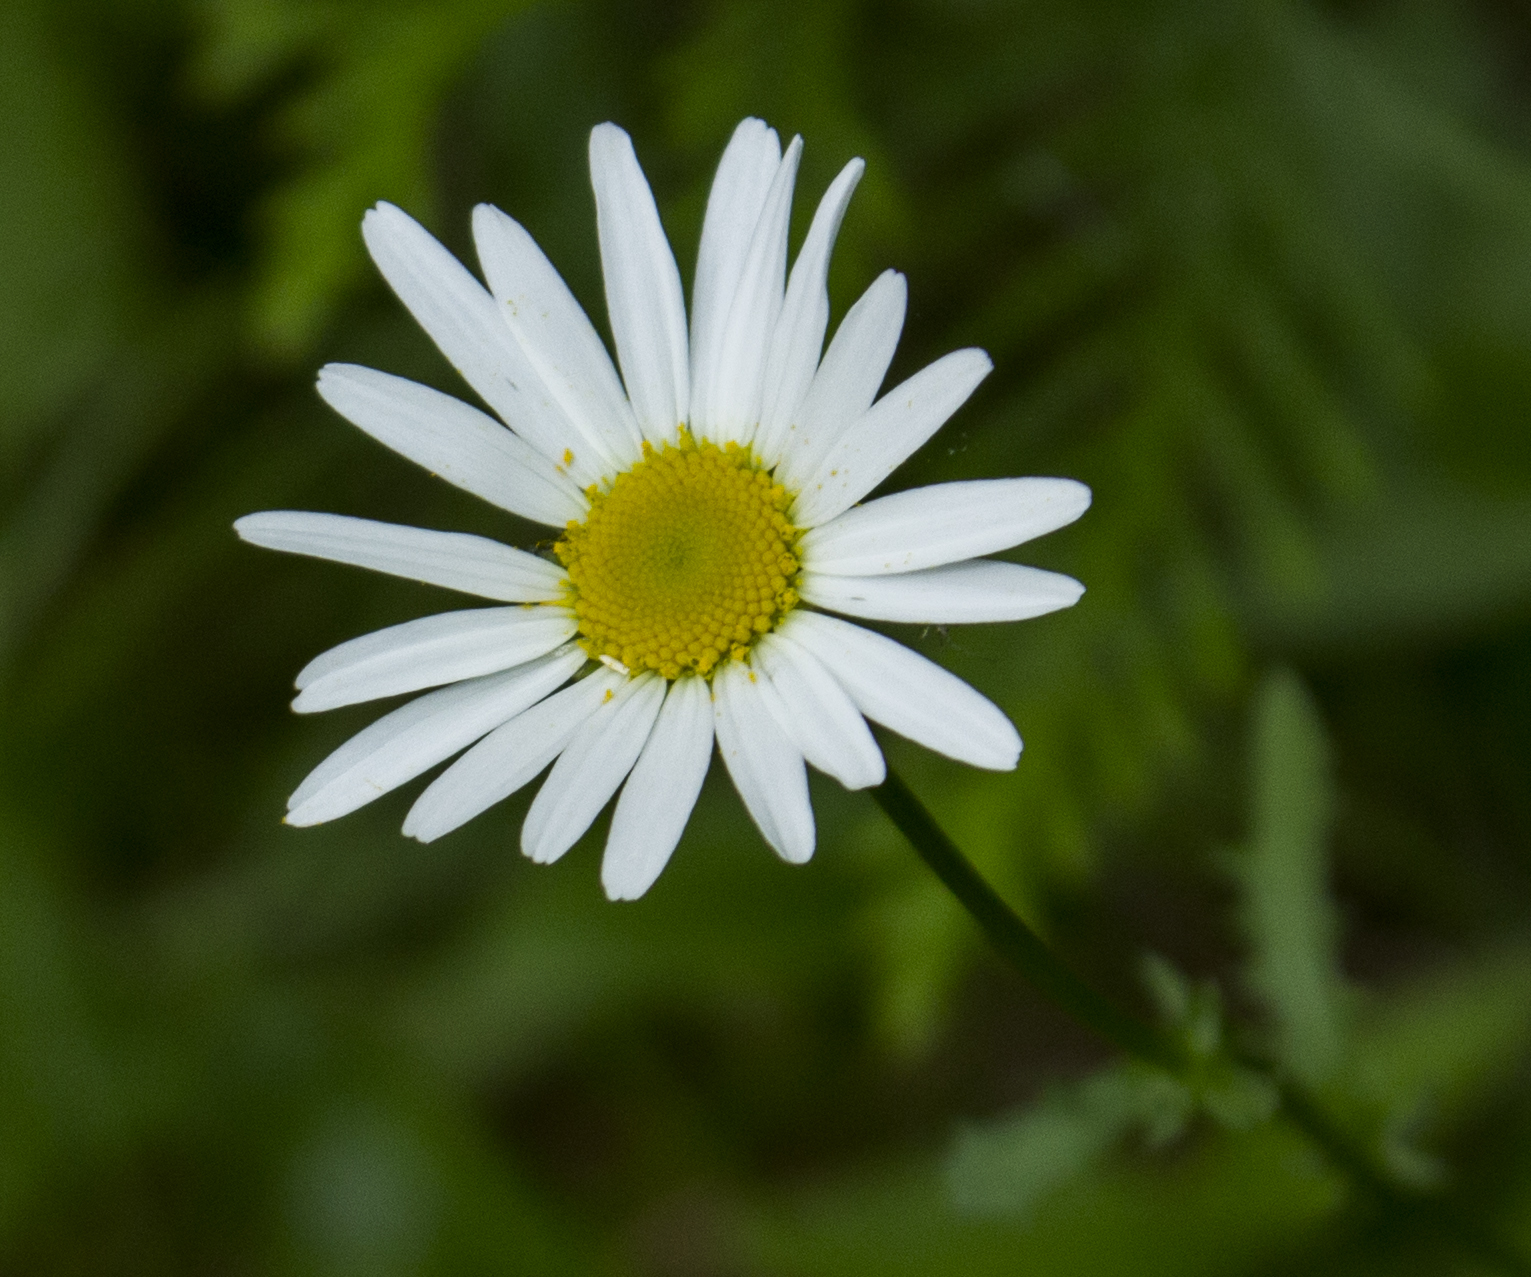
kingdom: Plantae
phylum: Tracheophyta
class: Magnoliopsida
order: Asterales
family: Asteraceae
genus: Leucanthemum
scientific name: Leucanthemum vulgare
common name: Oxeye daisy
